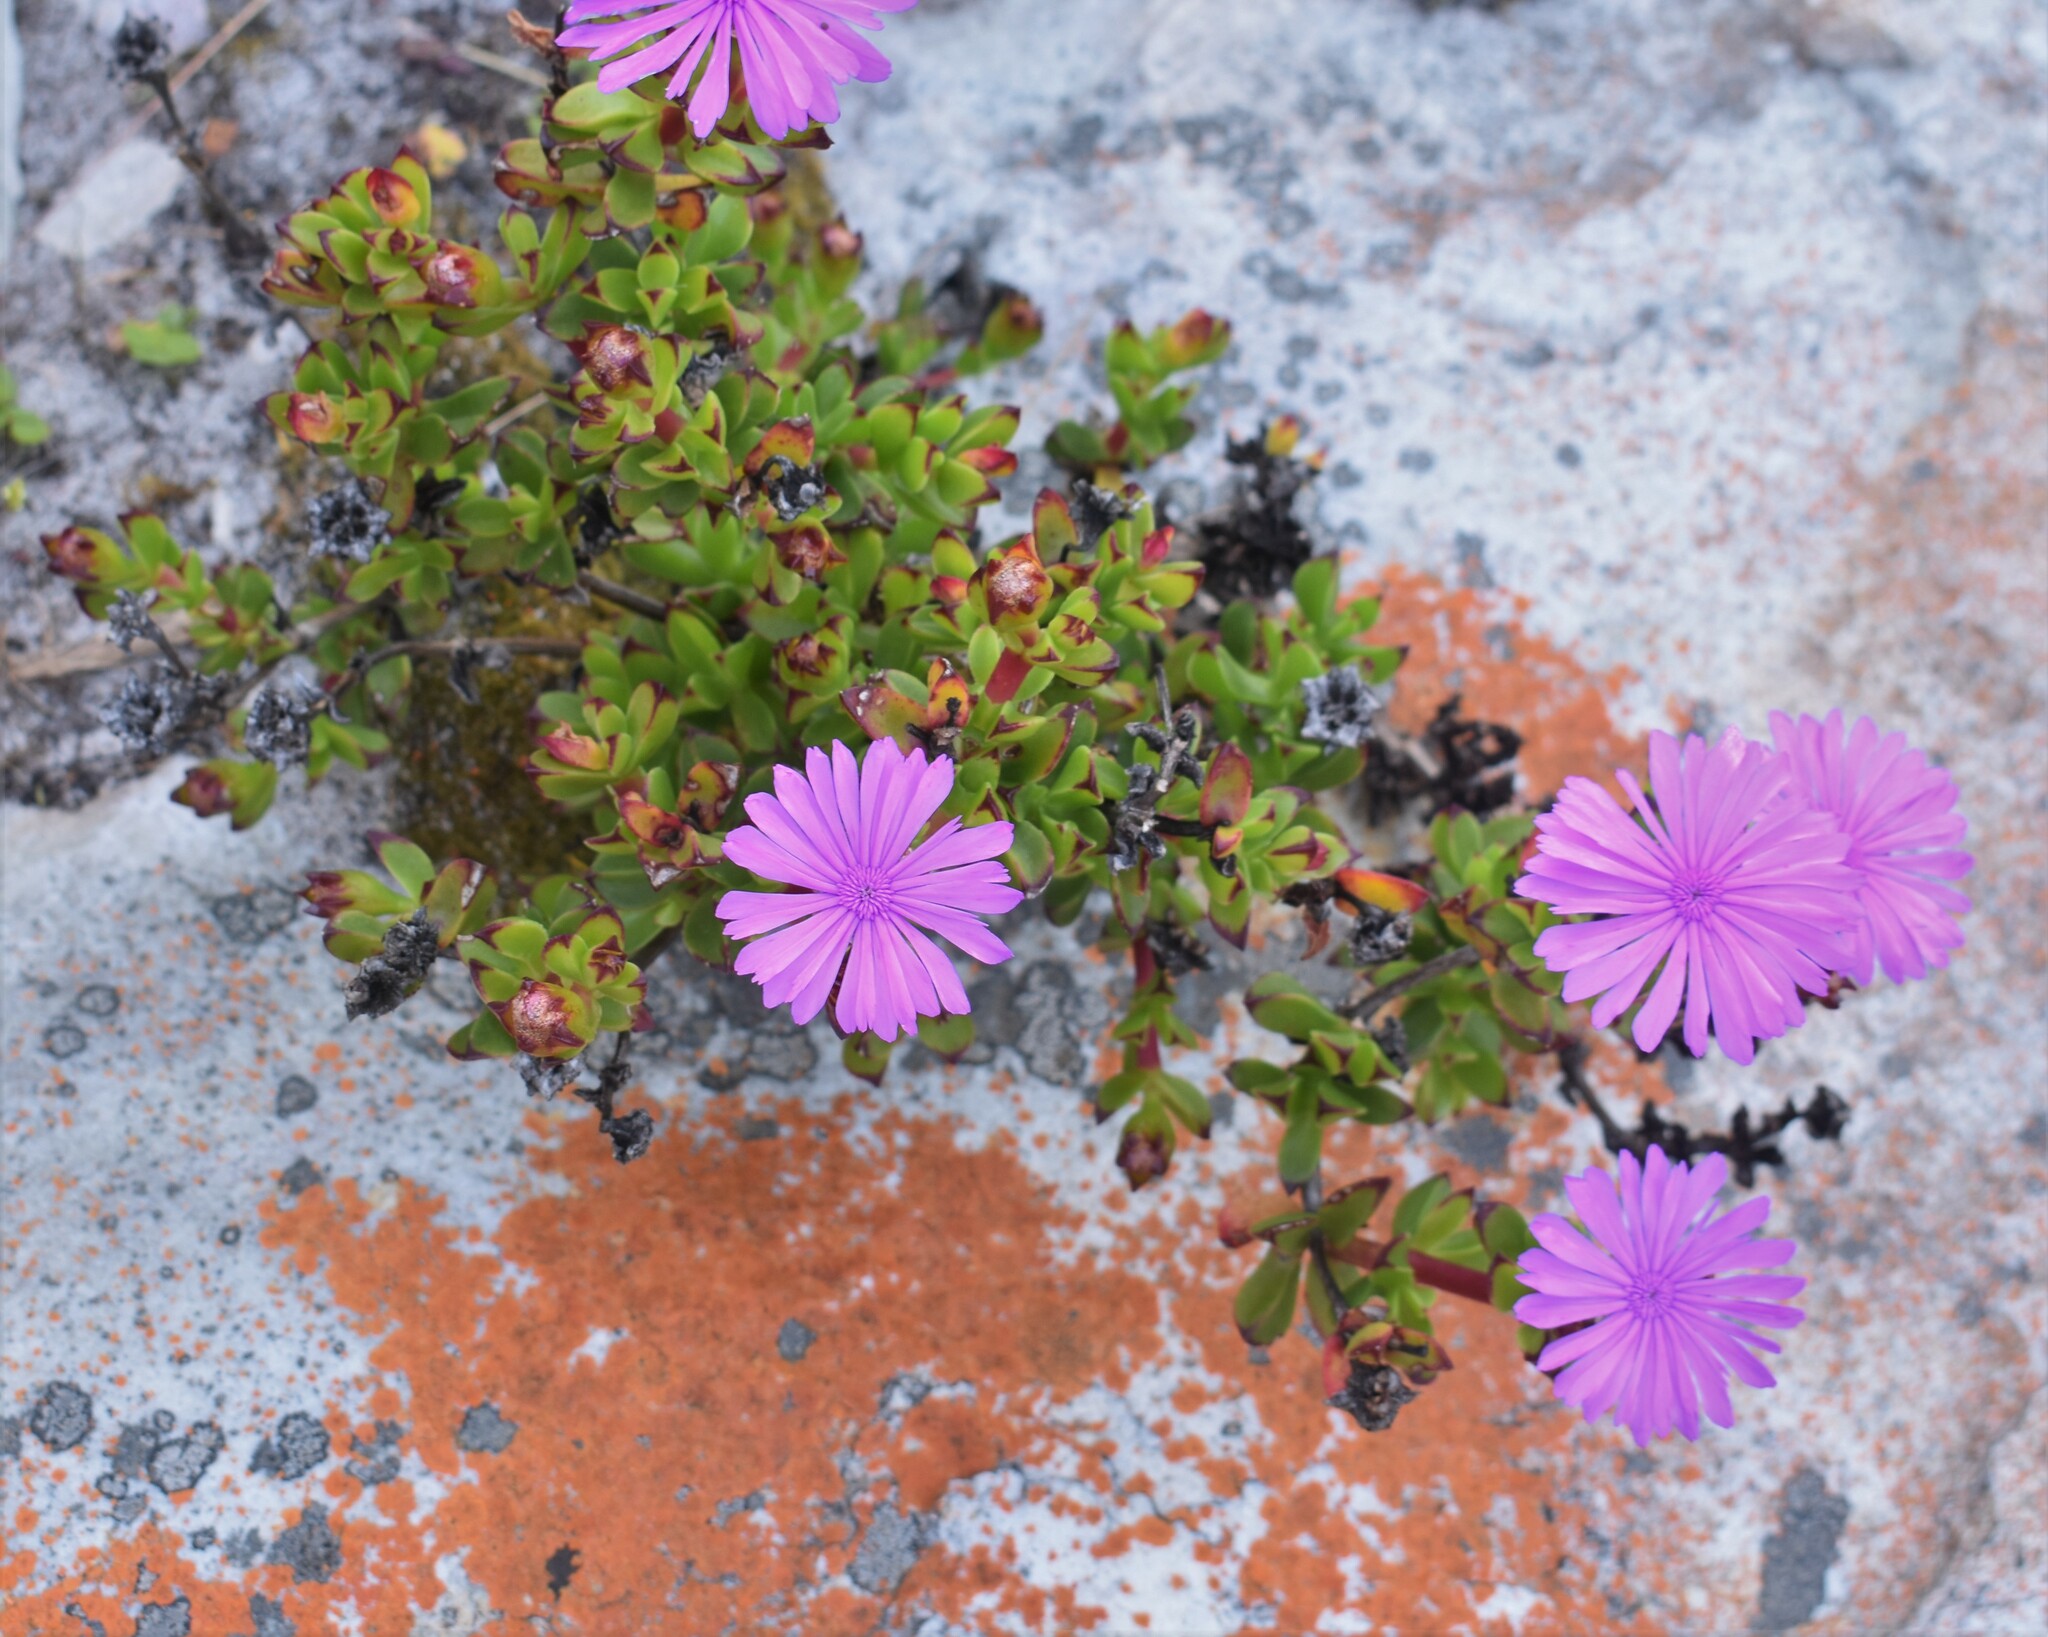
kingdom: Plantae
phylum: Tracheophyta
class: Magnoliopsida
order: Caryophyllales
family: Aizoaceae
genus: Erepsia
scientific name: Erepsia inclaudens
